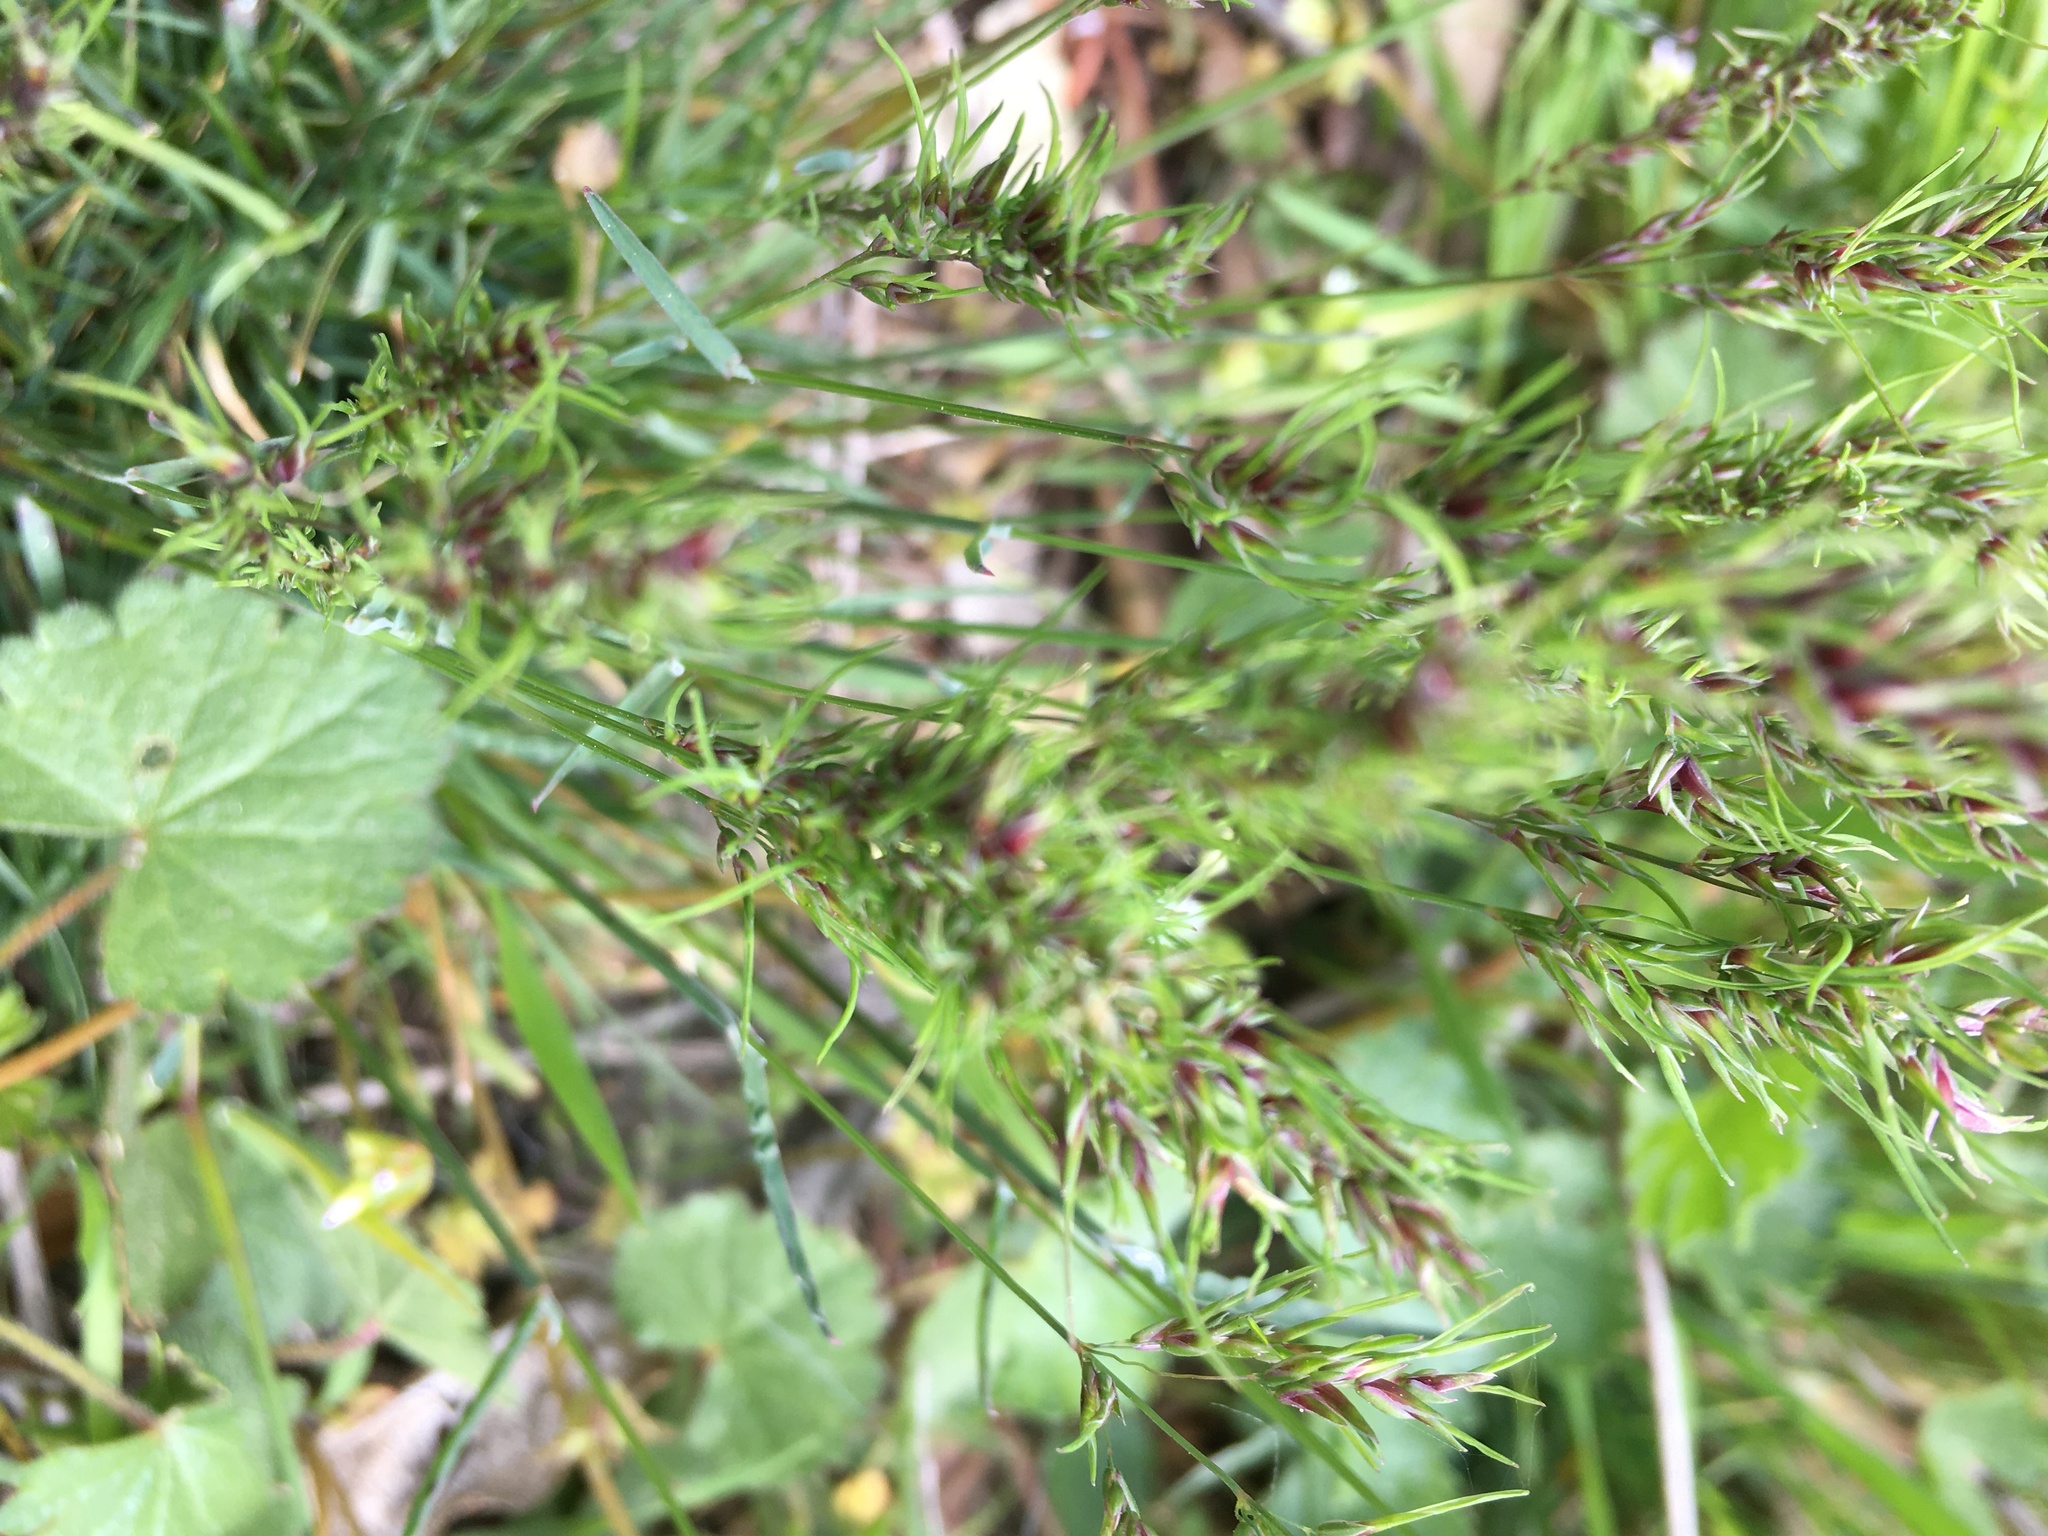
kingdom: Plantae
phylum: Tracheophyta
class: Liliopsida
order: Poales
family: Poaceae
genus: Poa
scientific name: Poa bulbosa
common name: Bulbous bluegrass
